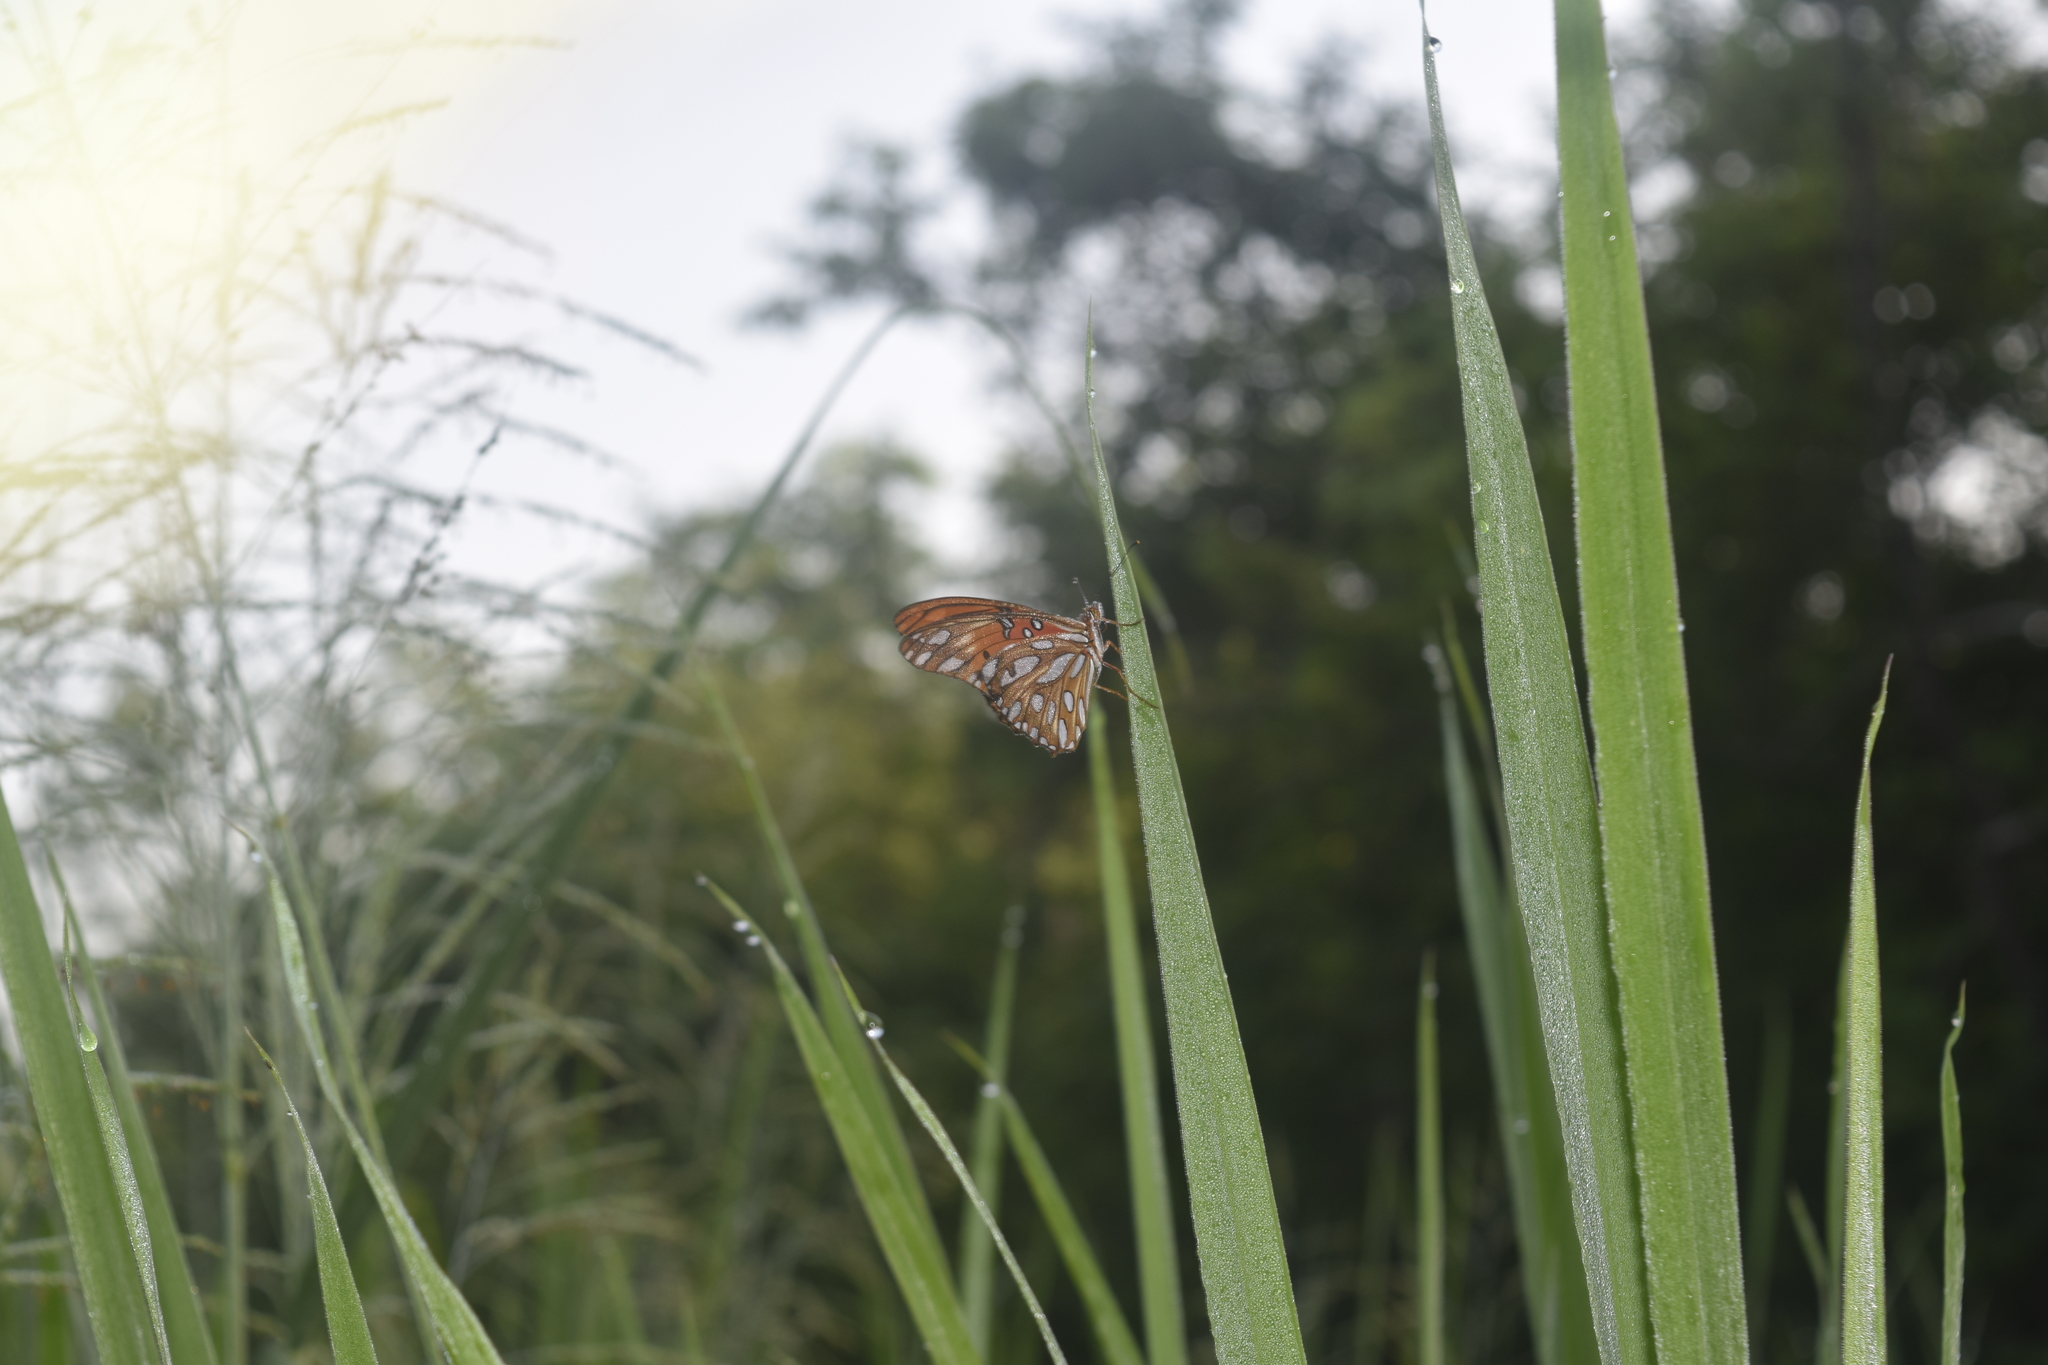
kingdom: Animalia
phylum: Arthropoda
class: Insecta
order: Lepidoptera
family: Nymphalidae
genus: Dione
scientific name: Dione vanillae
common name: Gulf fritillary
